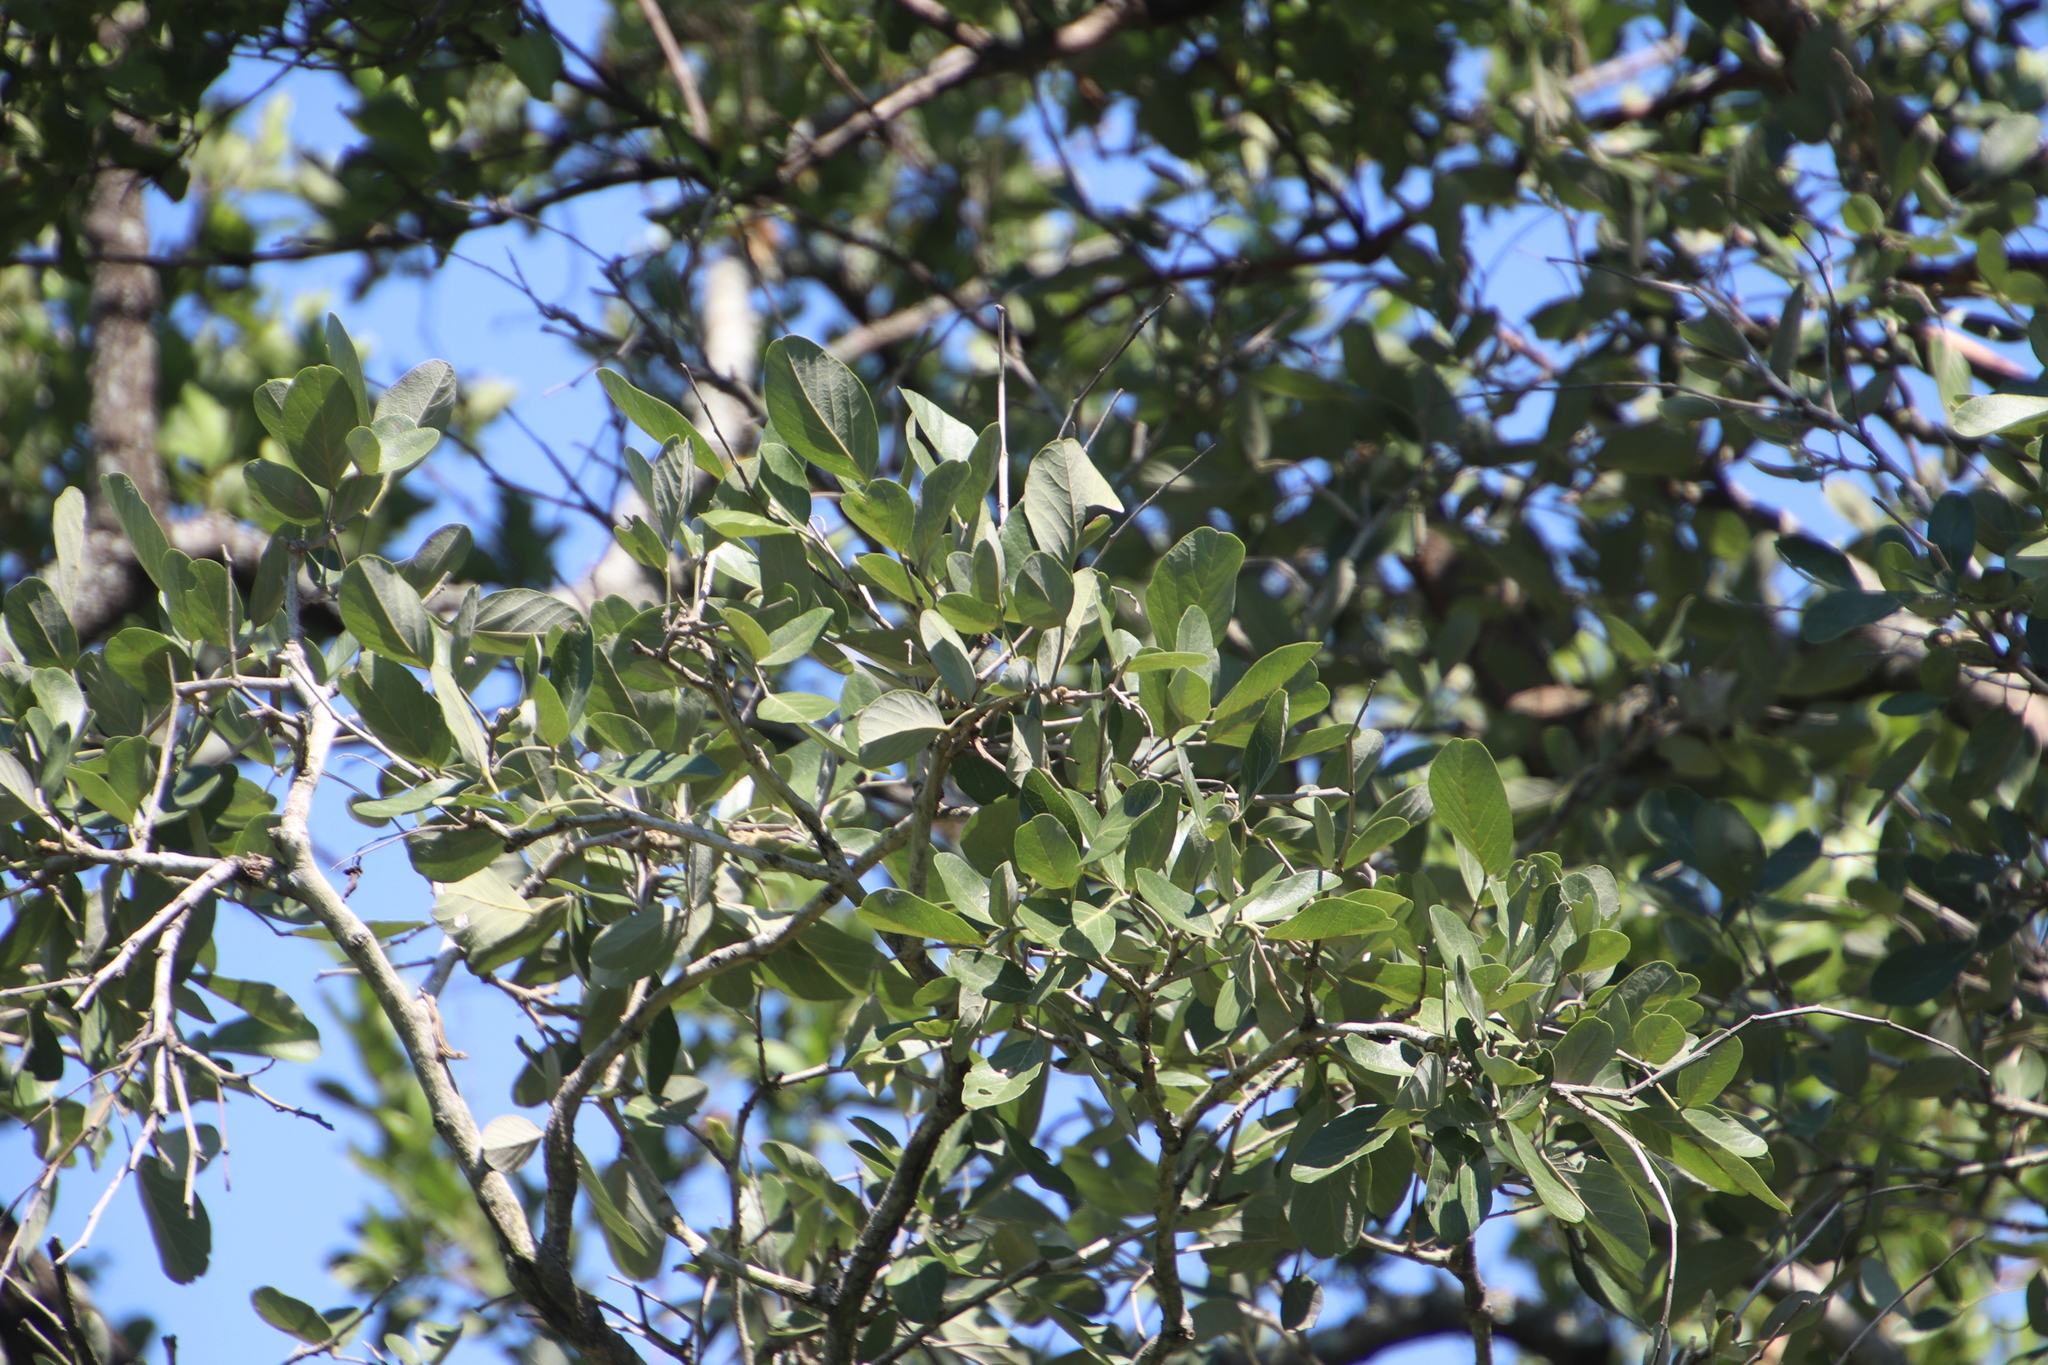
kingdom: Plantae
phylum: Tracheophyta
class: Magnoliopsida
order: Fabales
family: Fabaceae
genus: Philenoptera
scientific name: Philenoptera violacea
